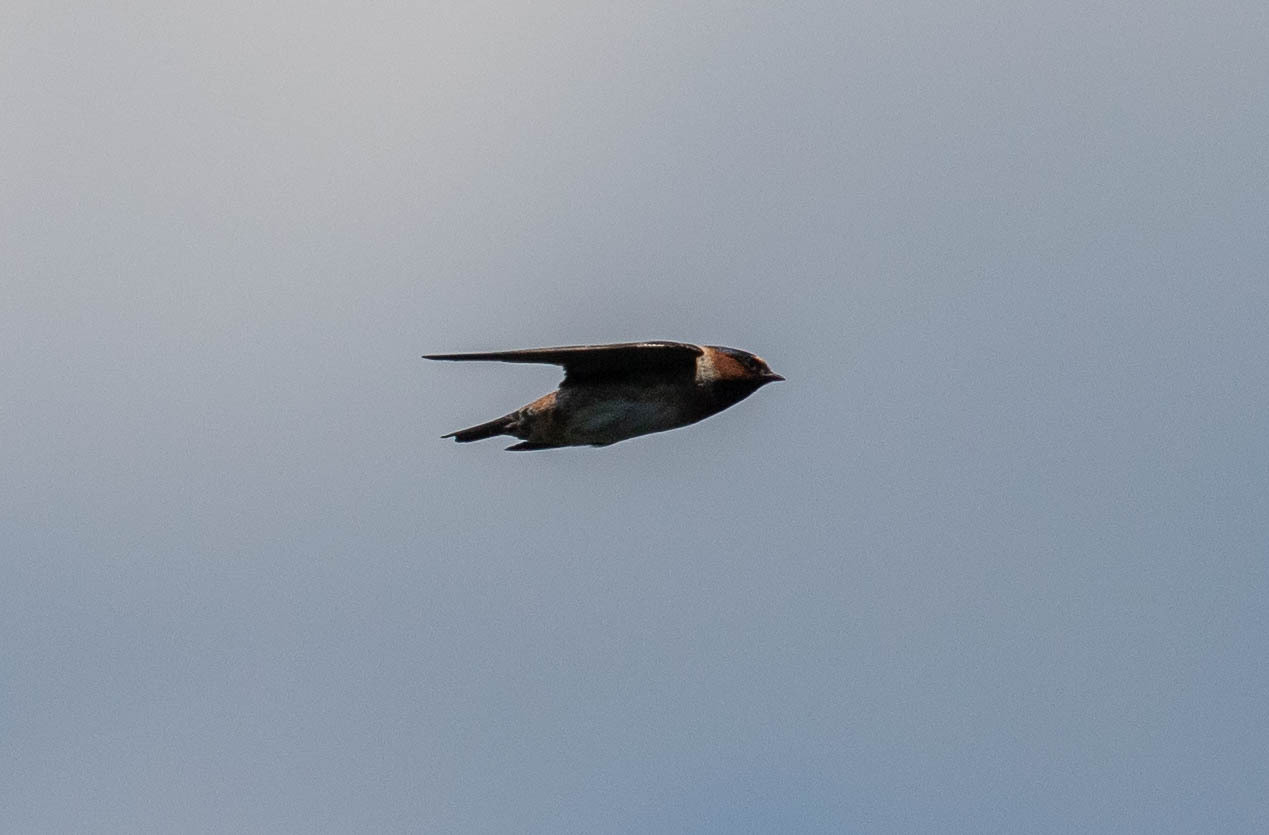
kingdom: Animalia
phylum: Chordata
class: Aves
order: Passeriformes
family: Hirundinidae
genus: Petrochelidon
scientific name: Petrochelidon pyrrhonota
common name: American cliff swallow
